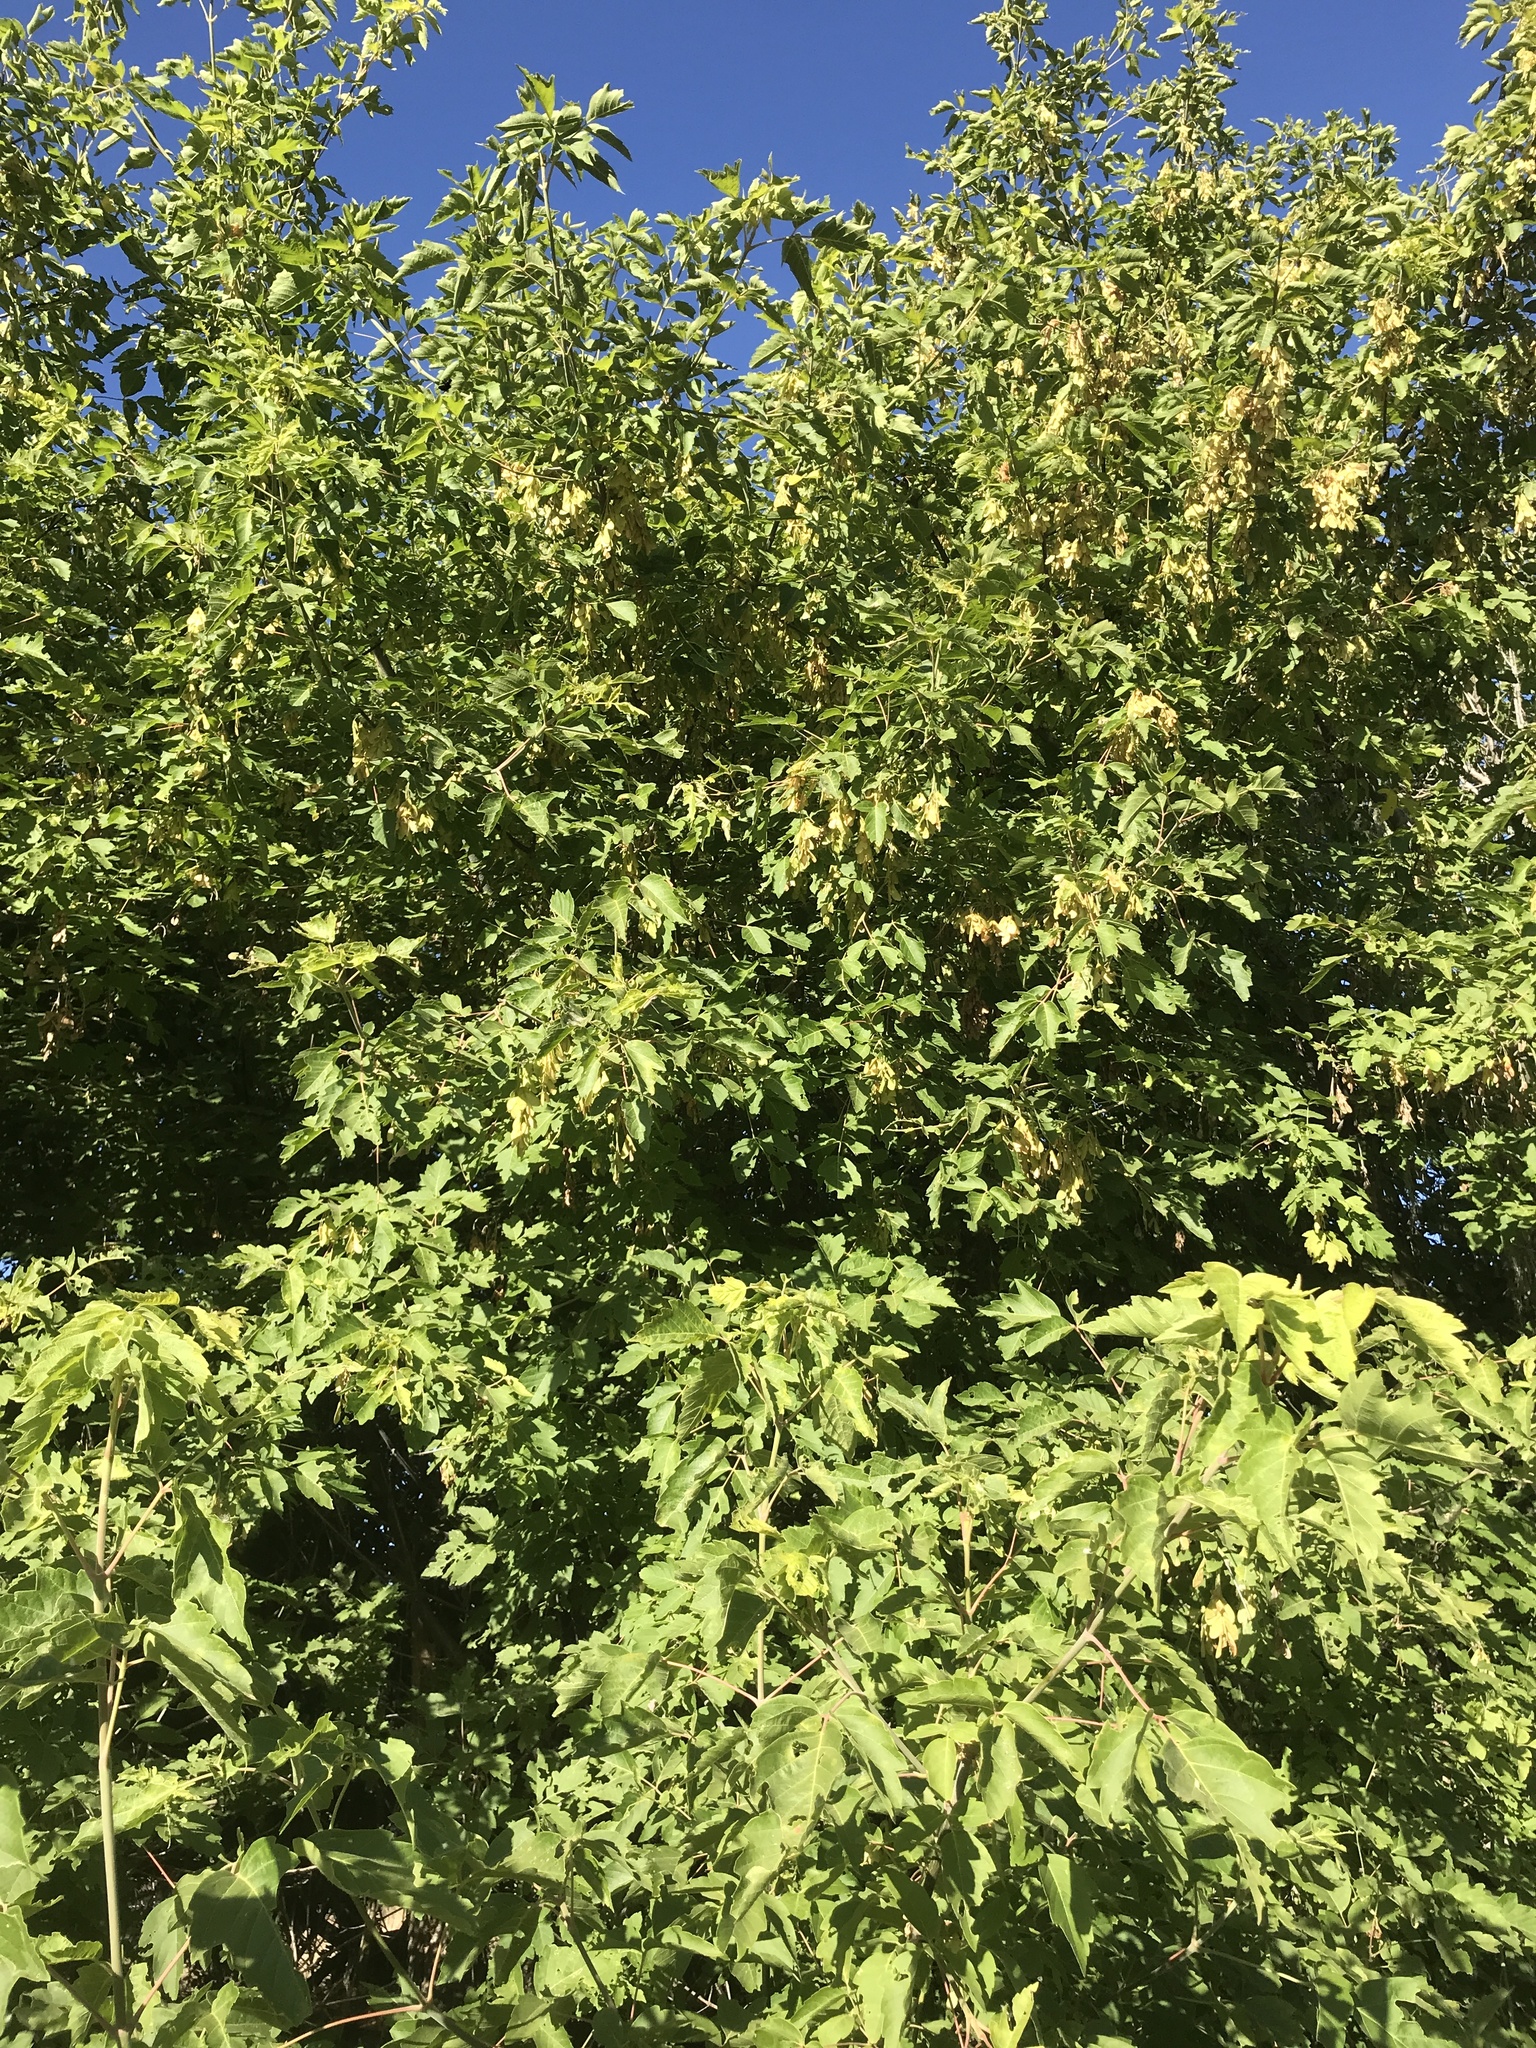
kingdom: Plantae
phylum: Tracheophyta
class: Magnoliopsida
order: Sapindales
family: Sapindaceae
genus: Acer
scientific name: Acer negundo
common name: Ashleaf maple
